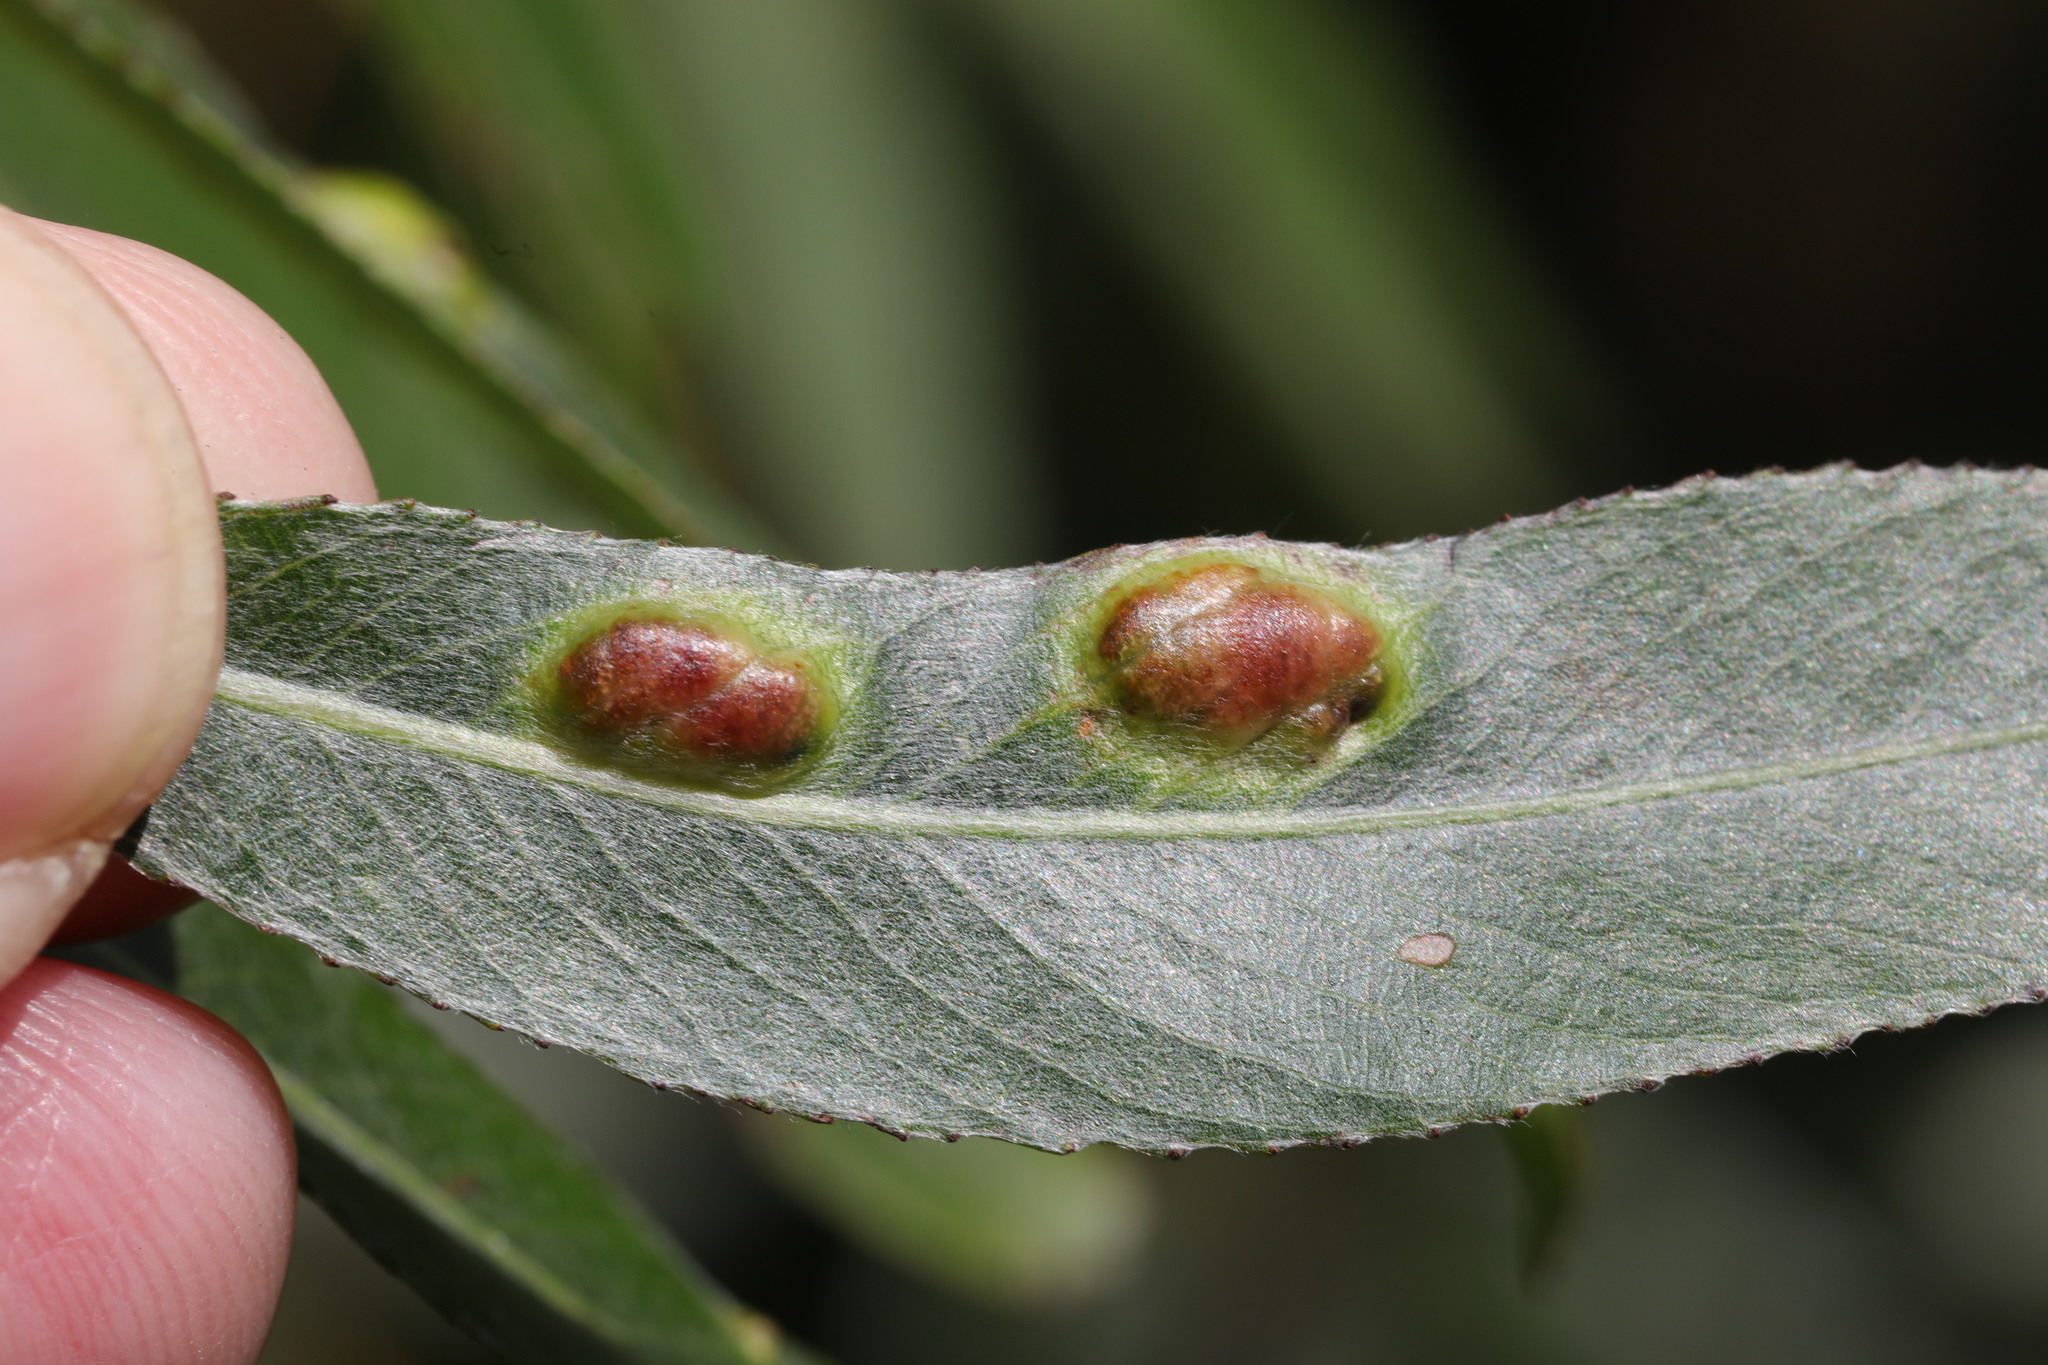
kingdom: Animalia
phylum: Arthropoda
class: Insecta
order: Hymenoptera
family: Tenthredinidae
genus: Pontania
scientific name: Pontania proxima
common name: Common sawfly
